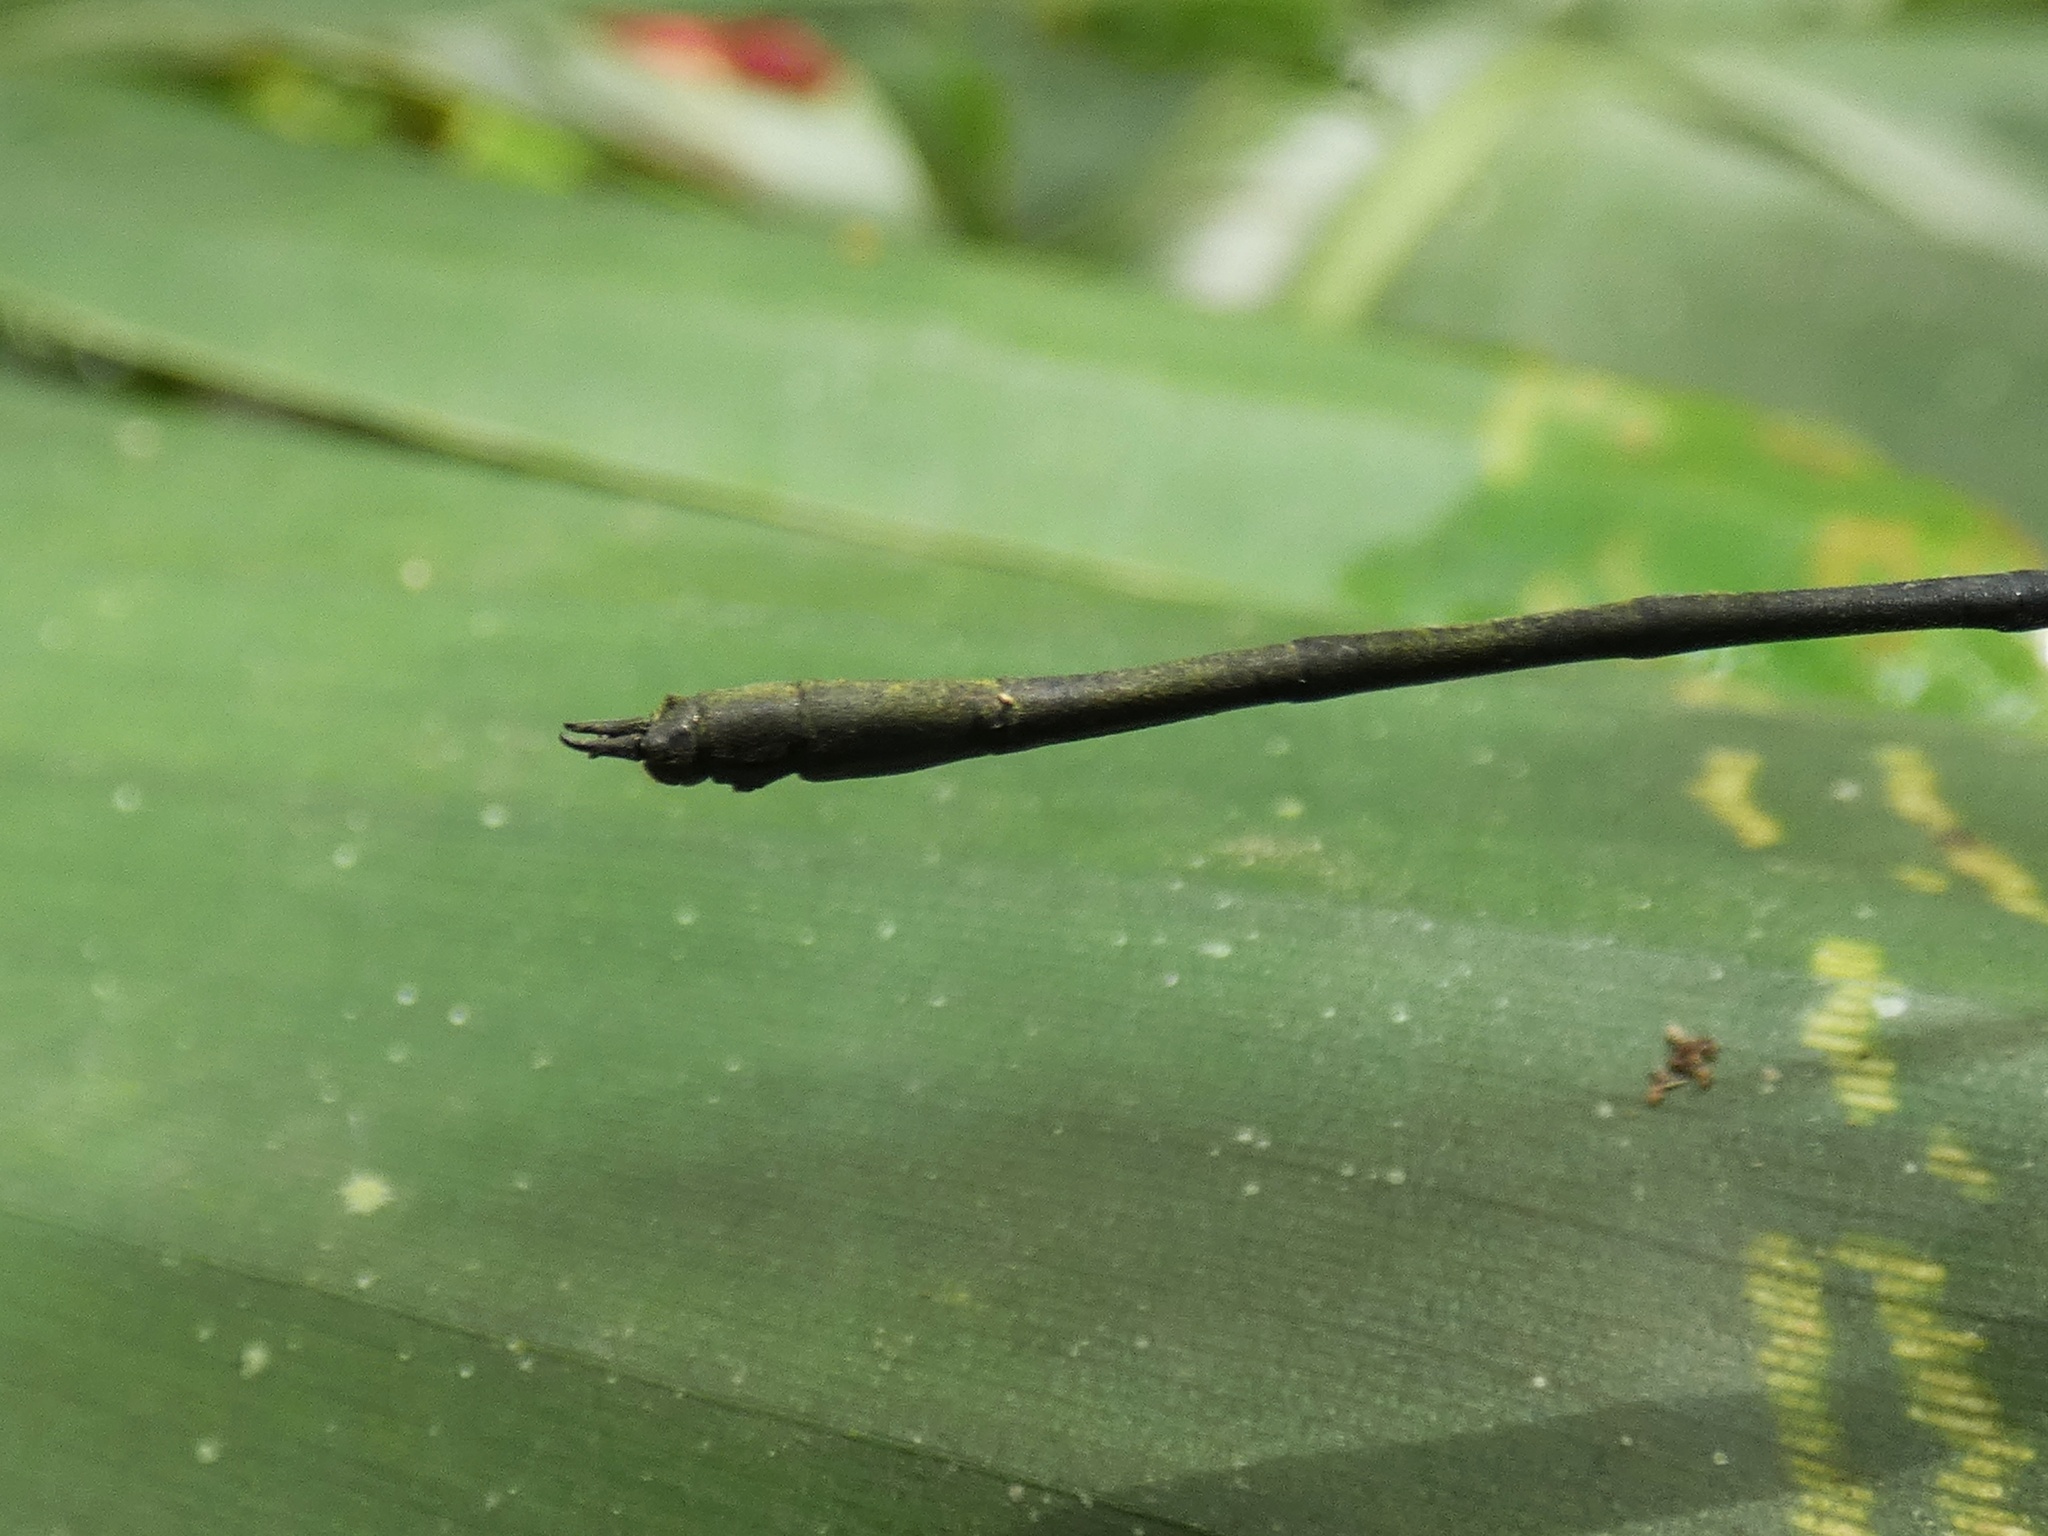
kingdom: Animalia
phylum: Arthropoda
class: Insecta
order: Odonata
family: Polythoridae
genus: Miocora
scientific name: Miocora peraltica
